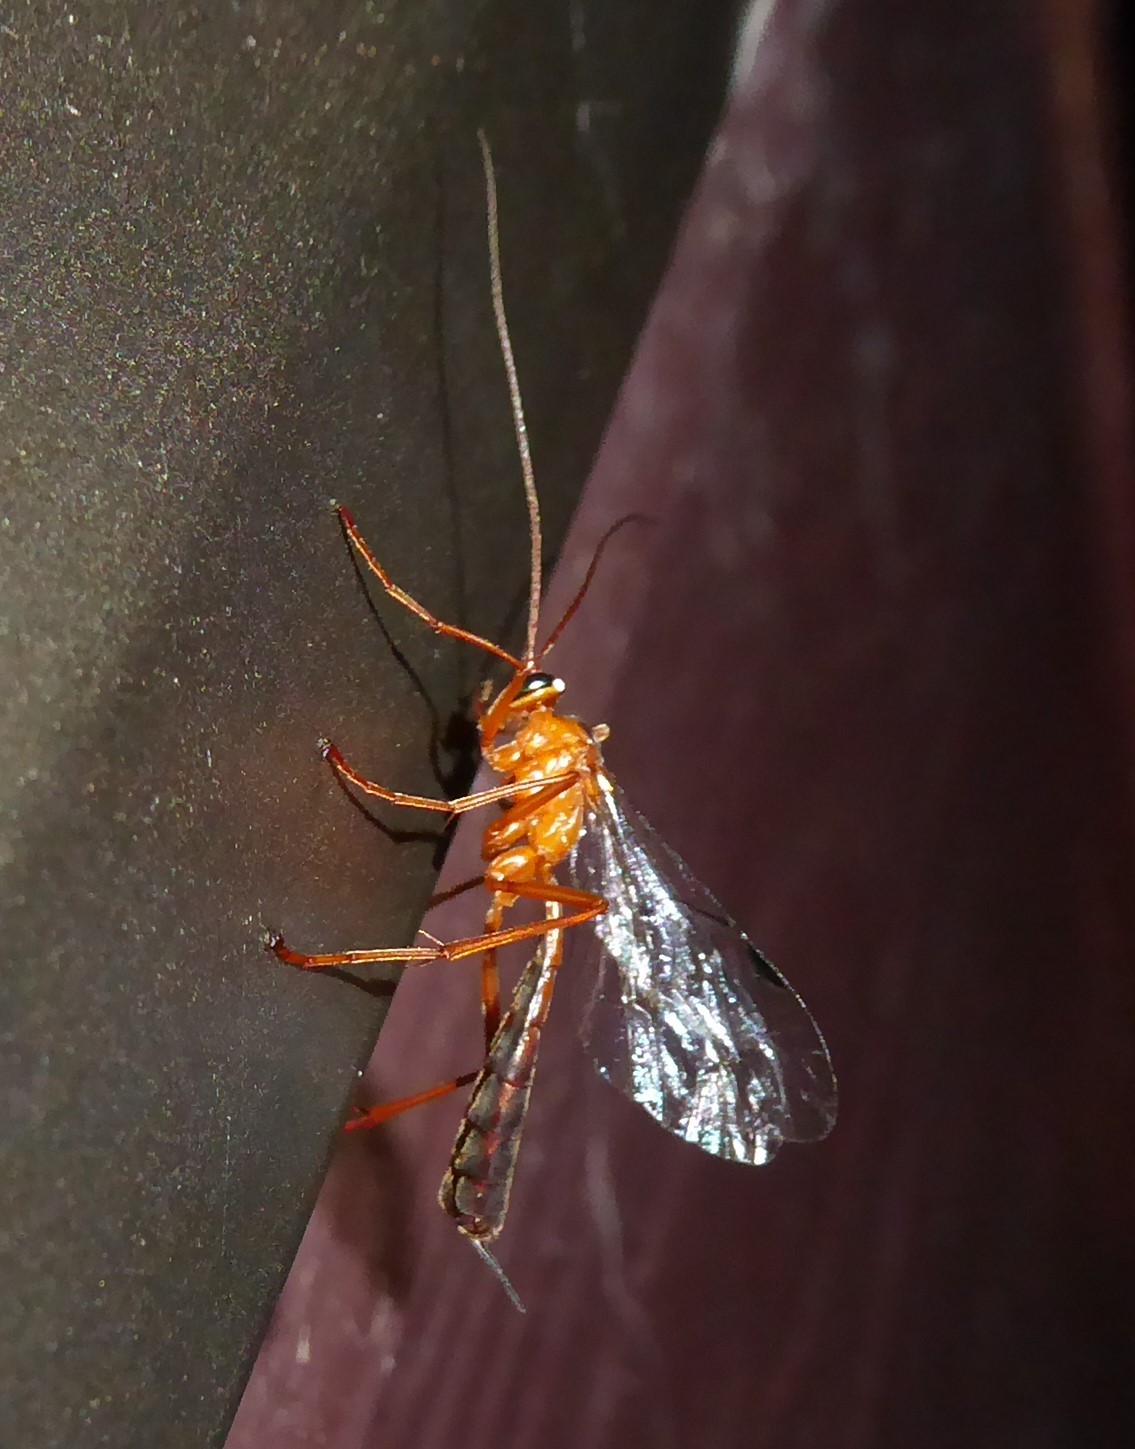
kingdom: Animalia
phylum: Arthropoda
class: Insecta
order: Hymenoptera
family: Ichneumonidae
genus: Netelia
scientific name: Netelia ephippiata
